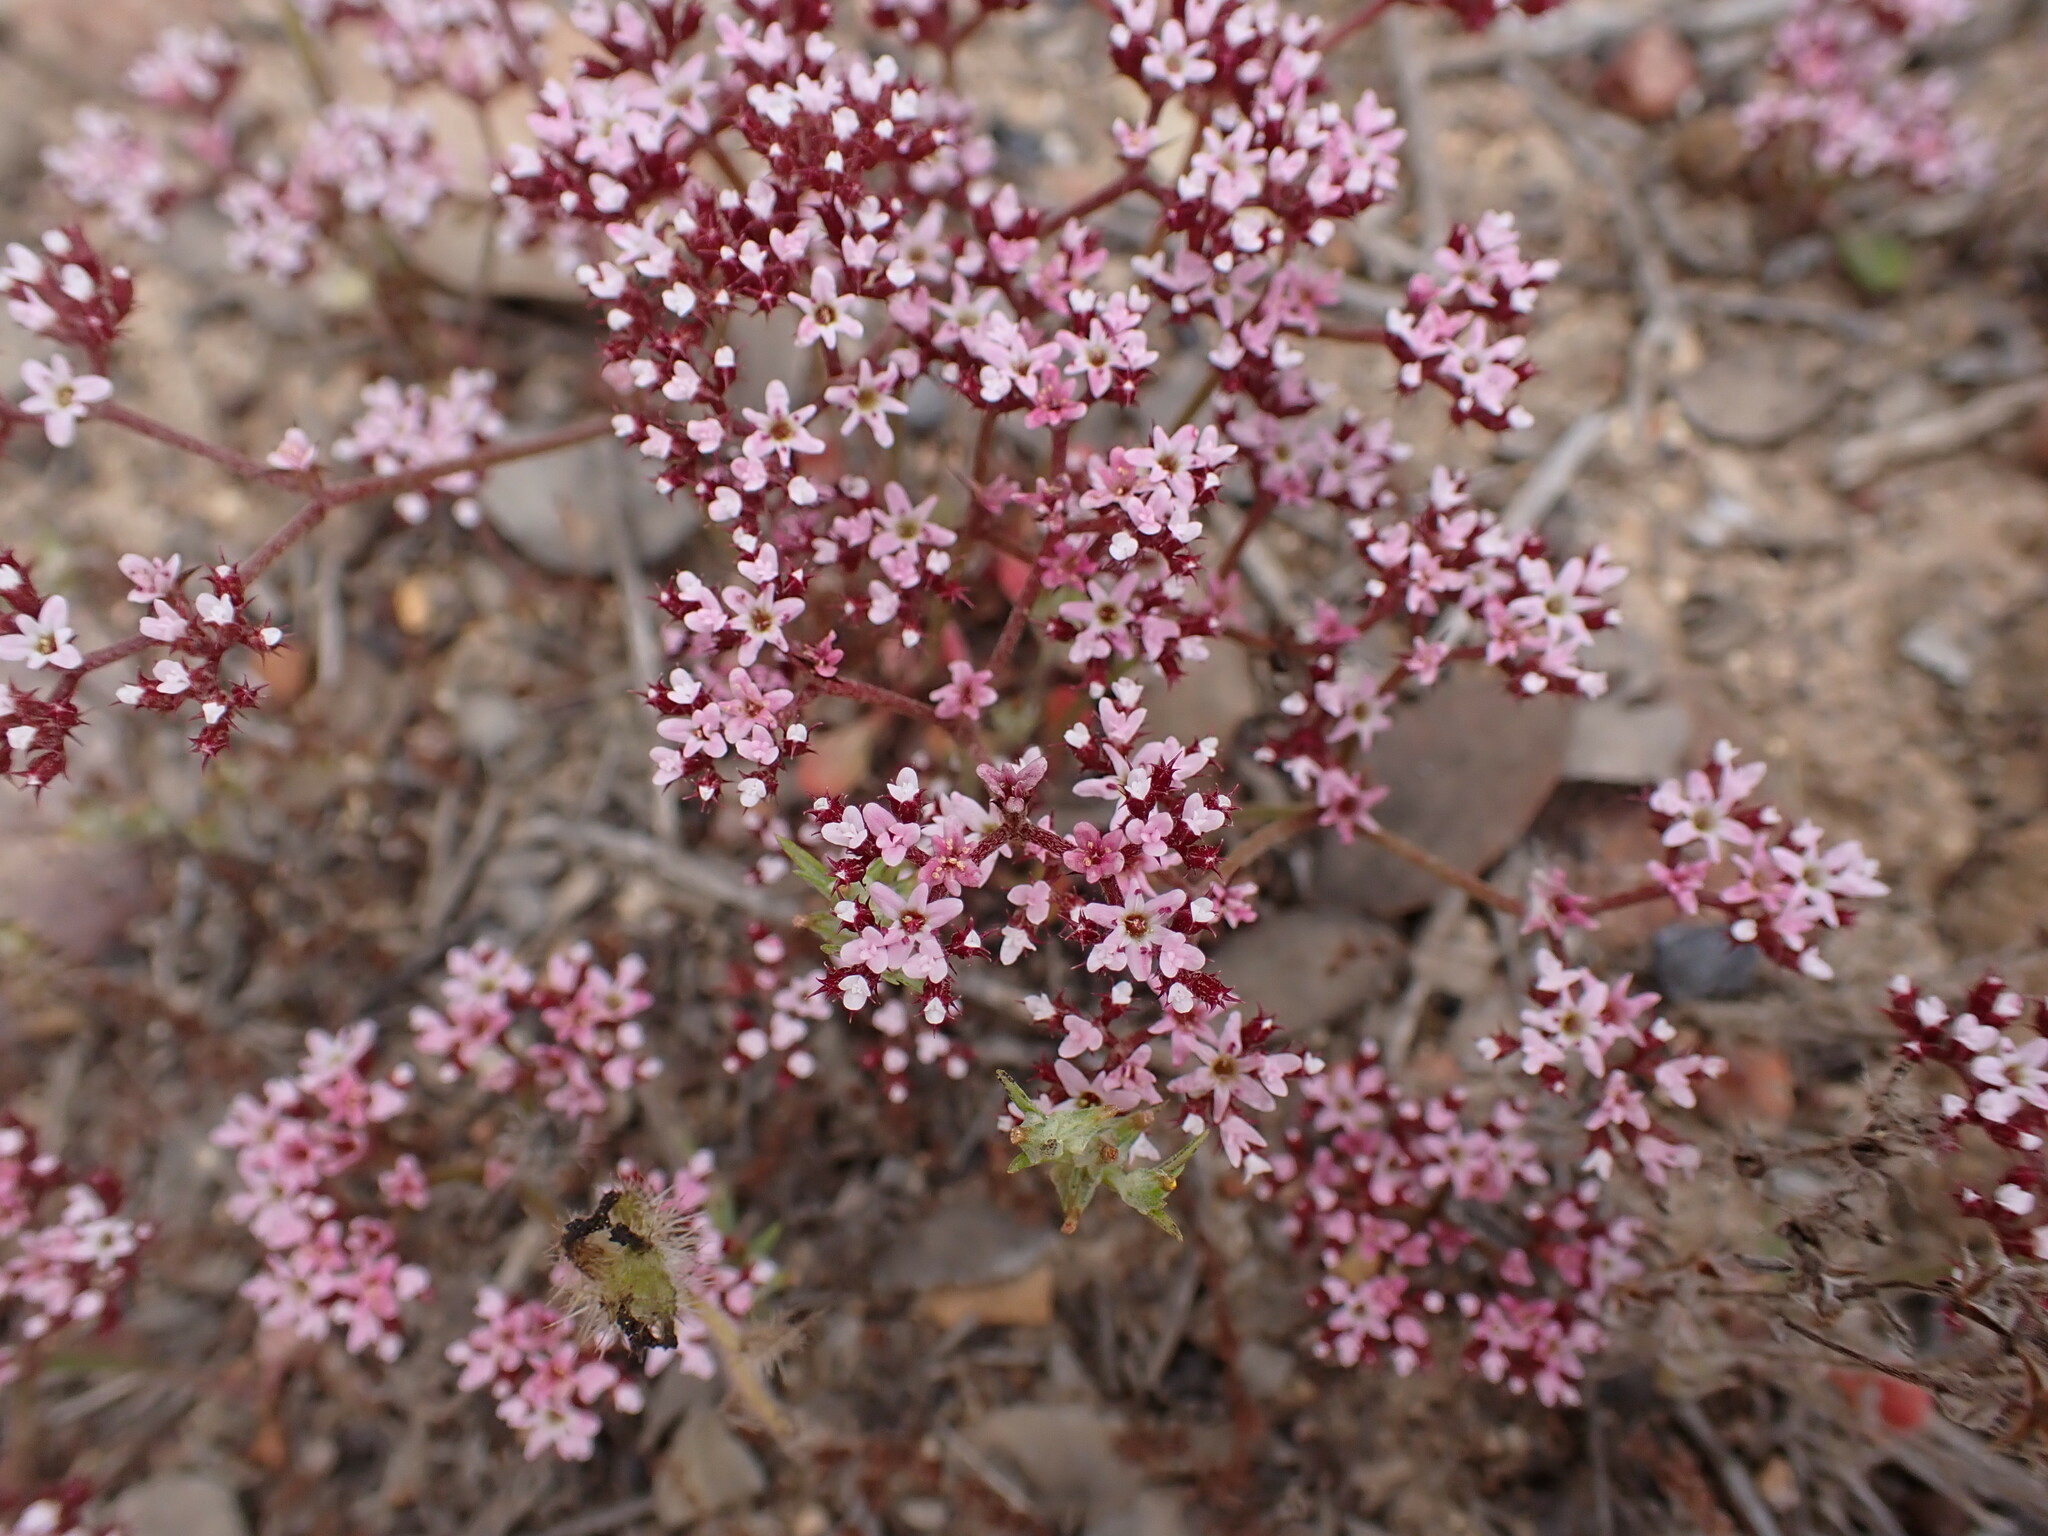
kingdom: Plantae
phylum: Tracheophyta
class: Magnoliopsida
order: Caryophyllales
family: Polygonaceae
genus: Chorizanthe
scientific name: Chorizanthe staticoides
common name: Turkish rugging
